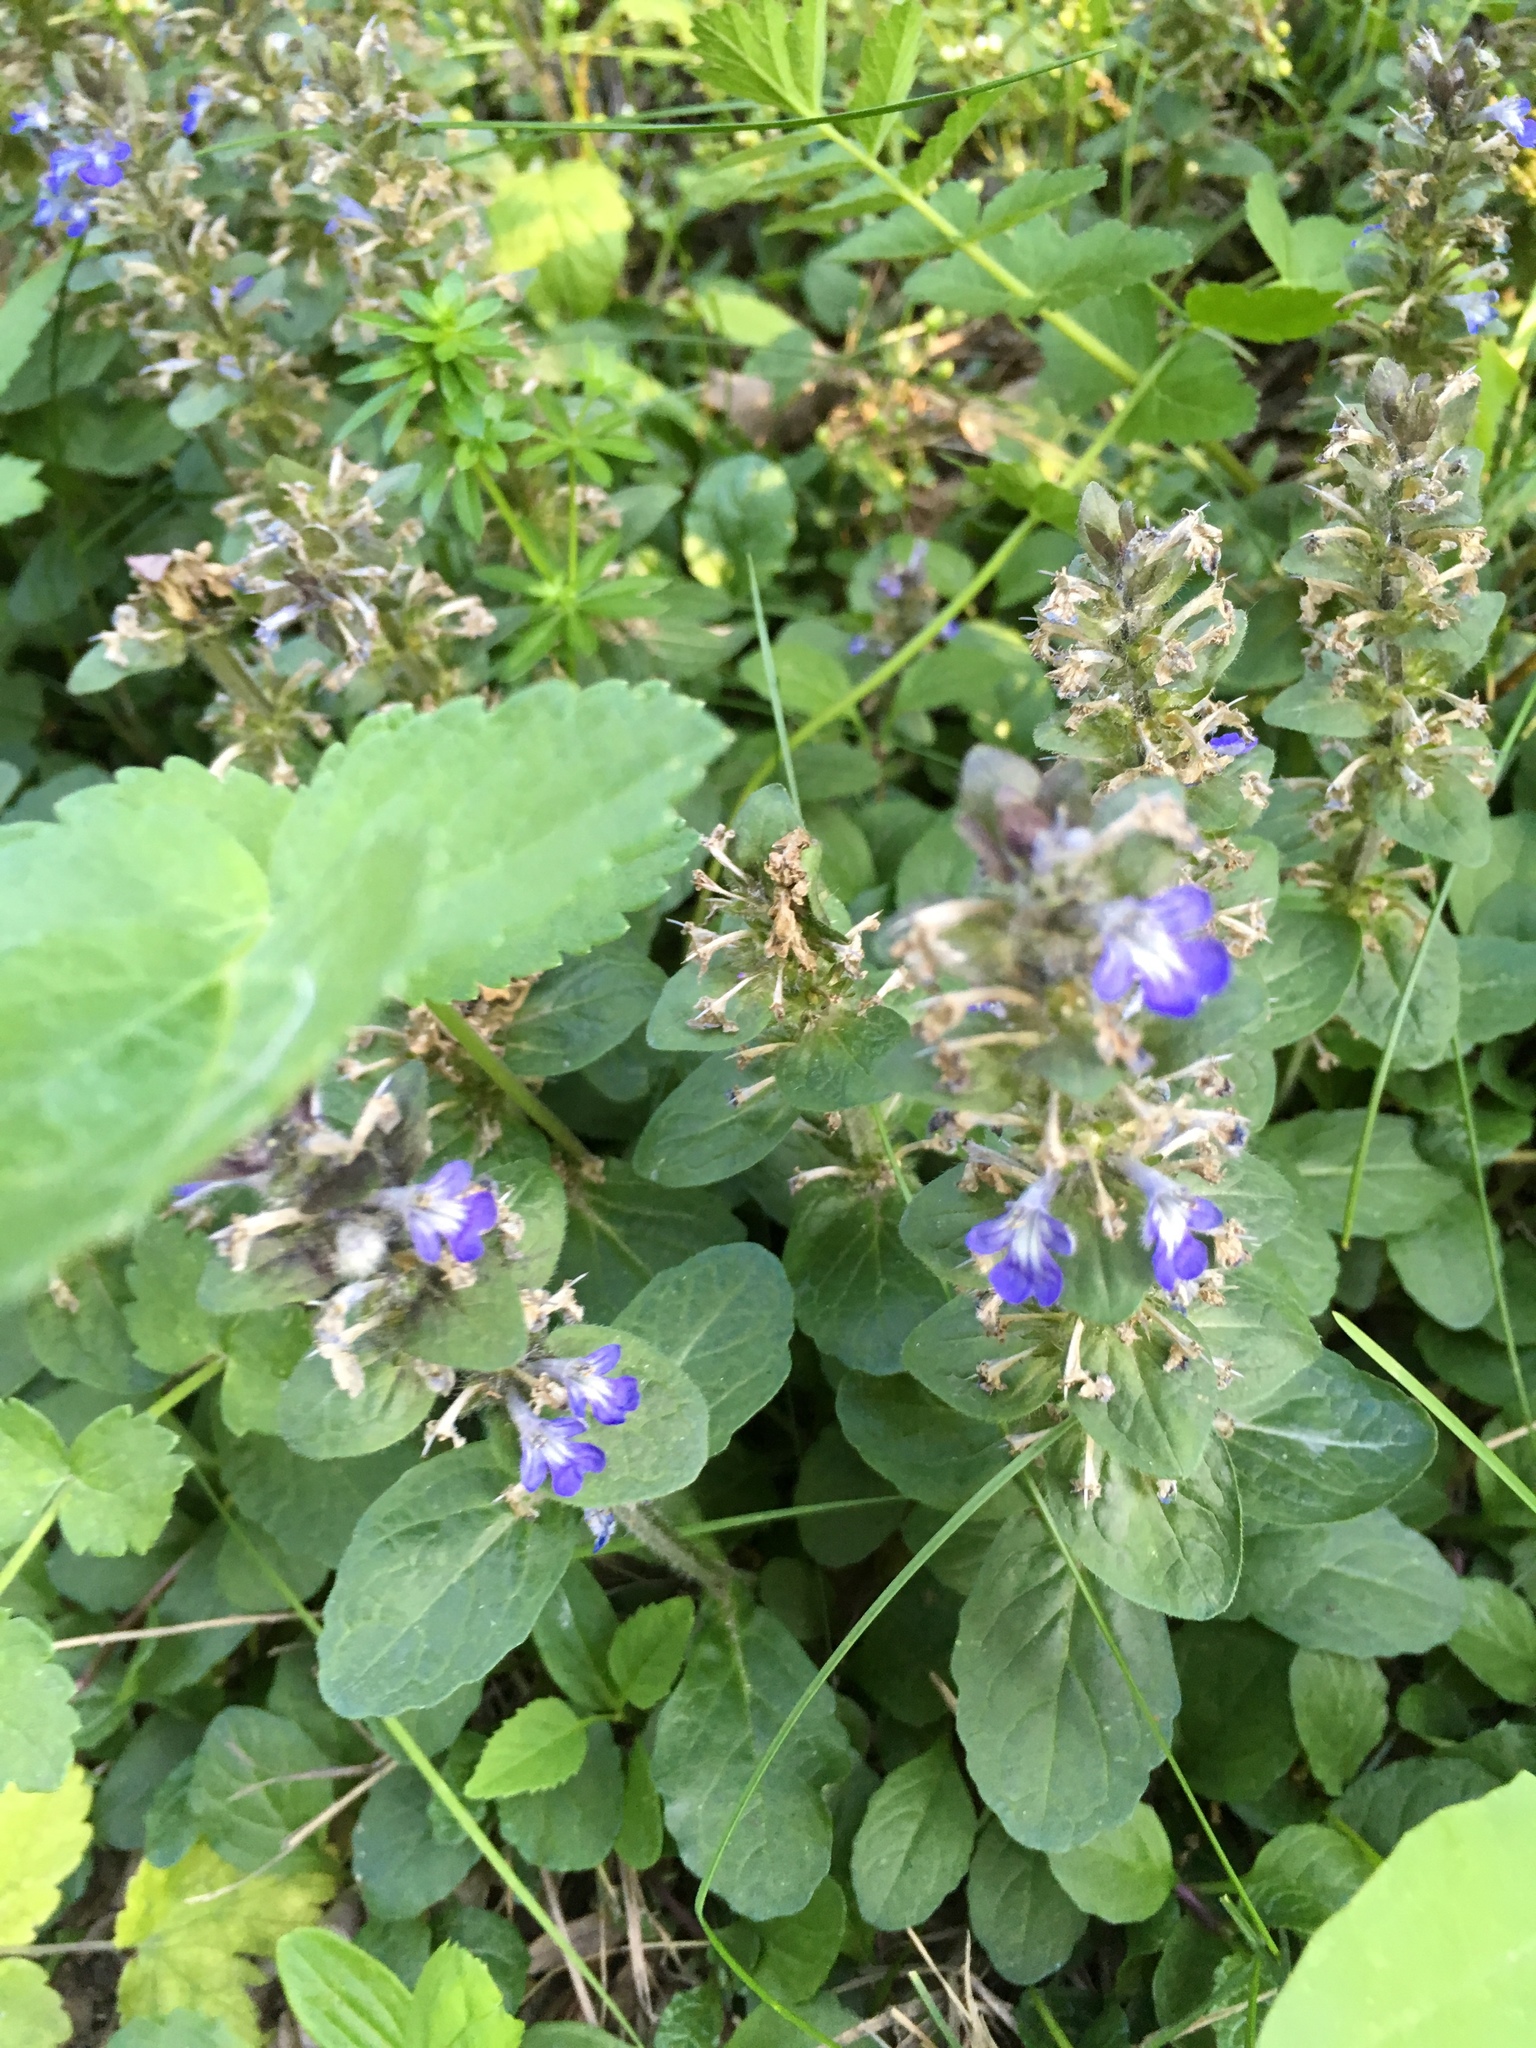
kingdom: Plantae
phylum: Tracheophyta
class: Magnoliopsida
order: Lamiales
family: Lamiaceae
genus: Ajuga
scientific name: Ajuga reptans
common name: Bugle
